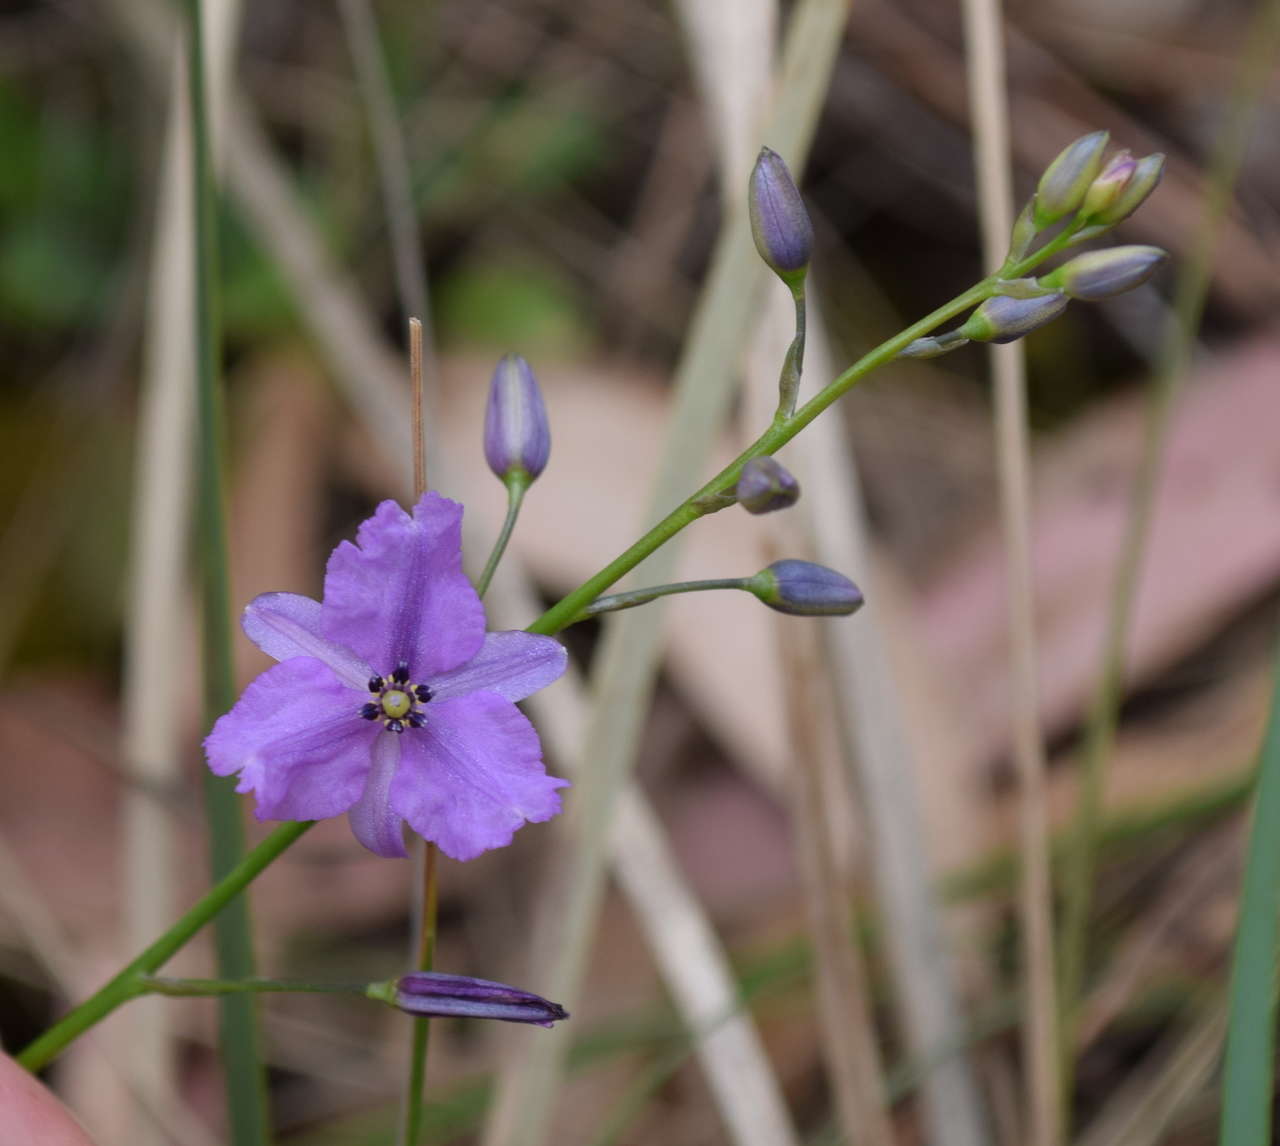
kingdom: Plantae
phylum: Tracheophyta
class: Liliopsida
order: Asparagales
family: Asparagaceae
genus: Arthropodium
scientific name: Arthropodium strictum
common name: Chocolate-lily
